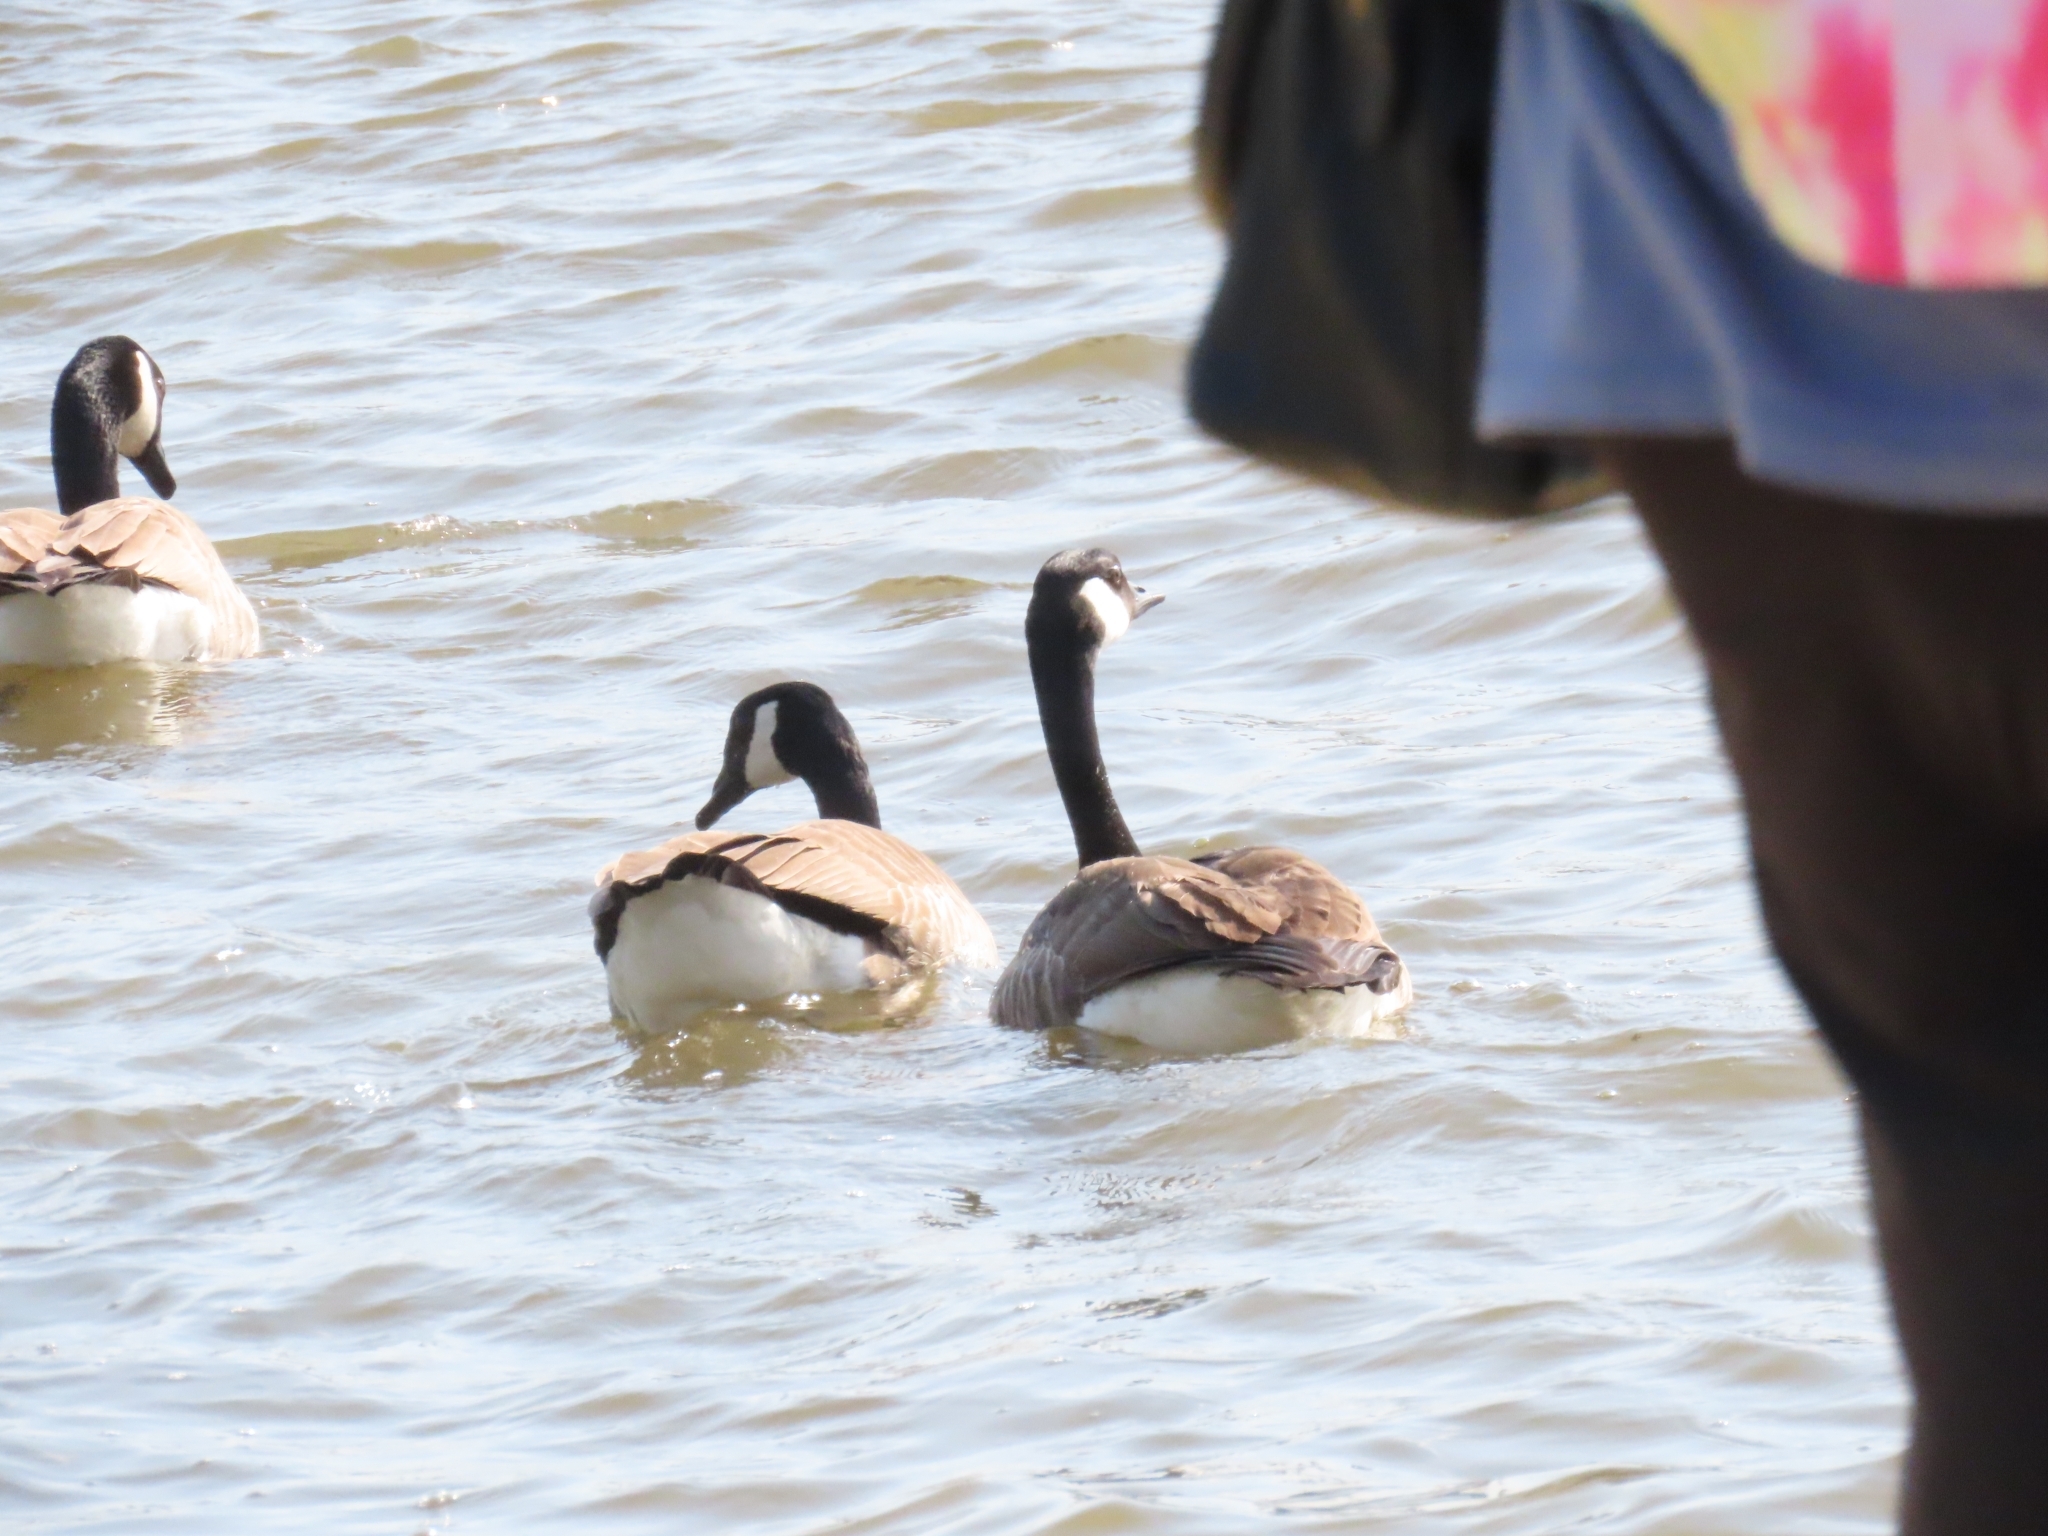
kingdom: Animalia
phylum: Chordata
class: Aves
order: Anseriformes
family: Anatidae
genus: Branta
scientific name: Branta canadensis
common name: Canada goose
